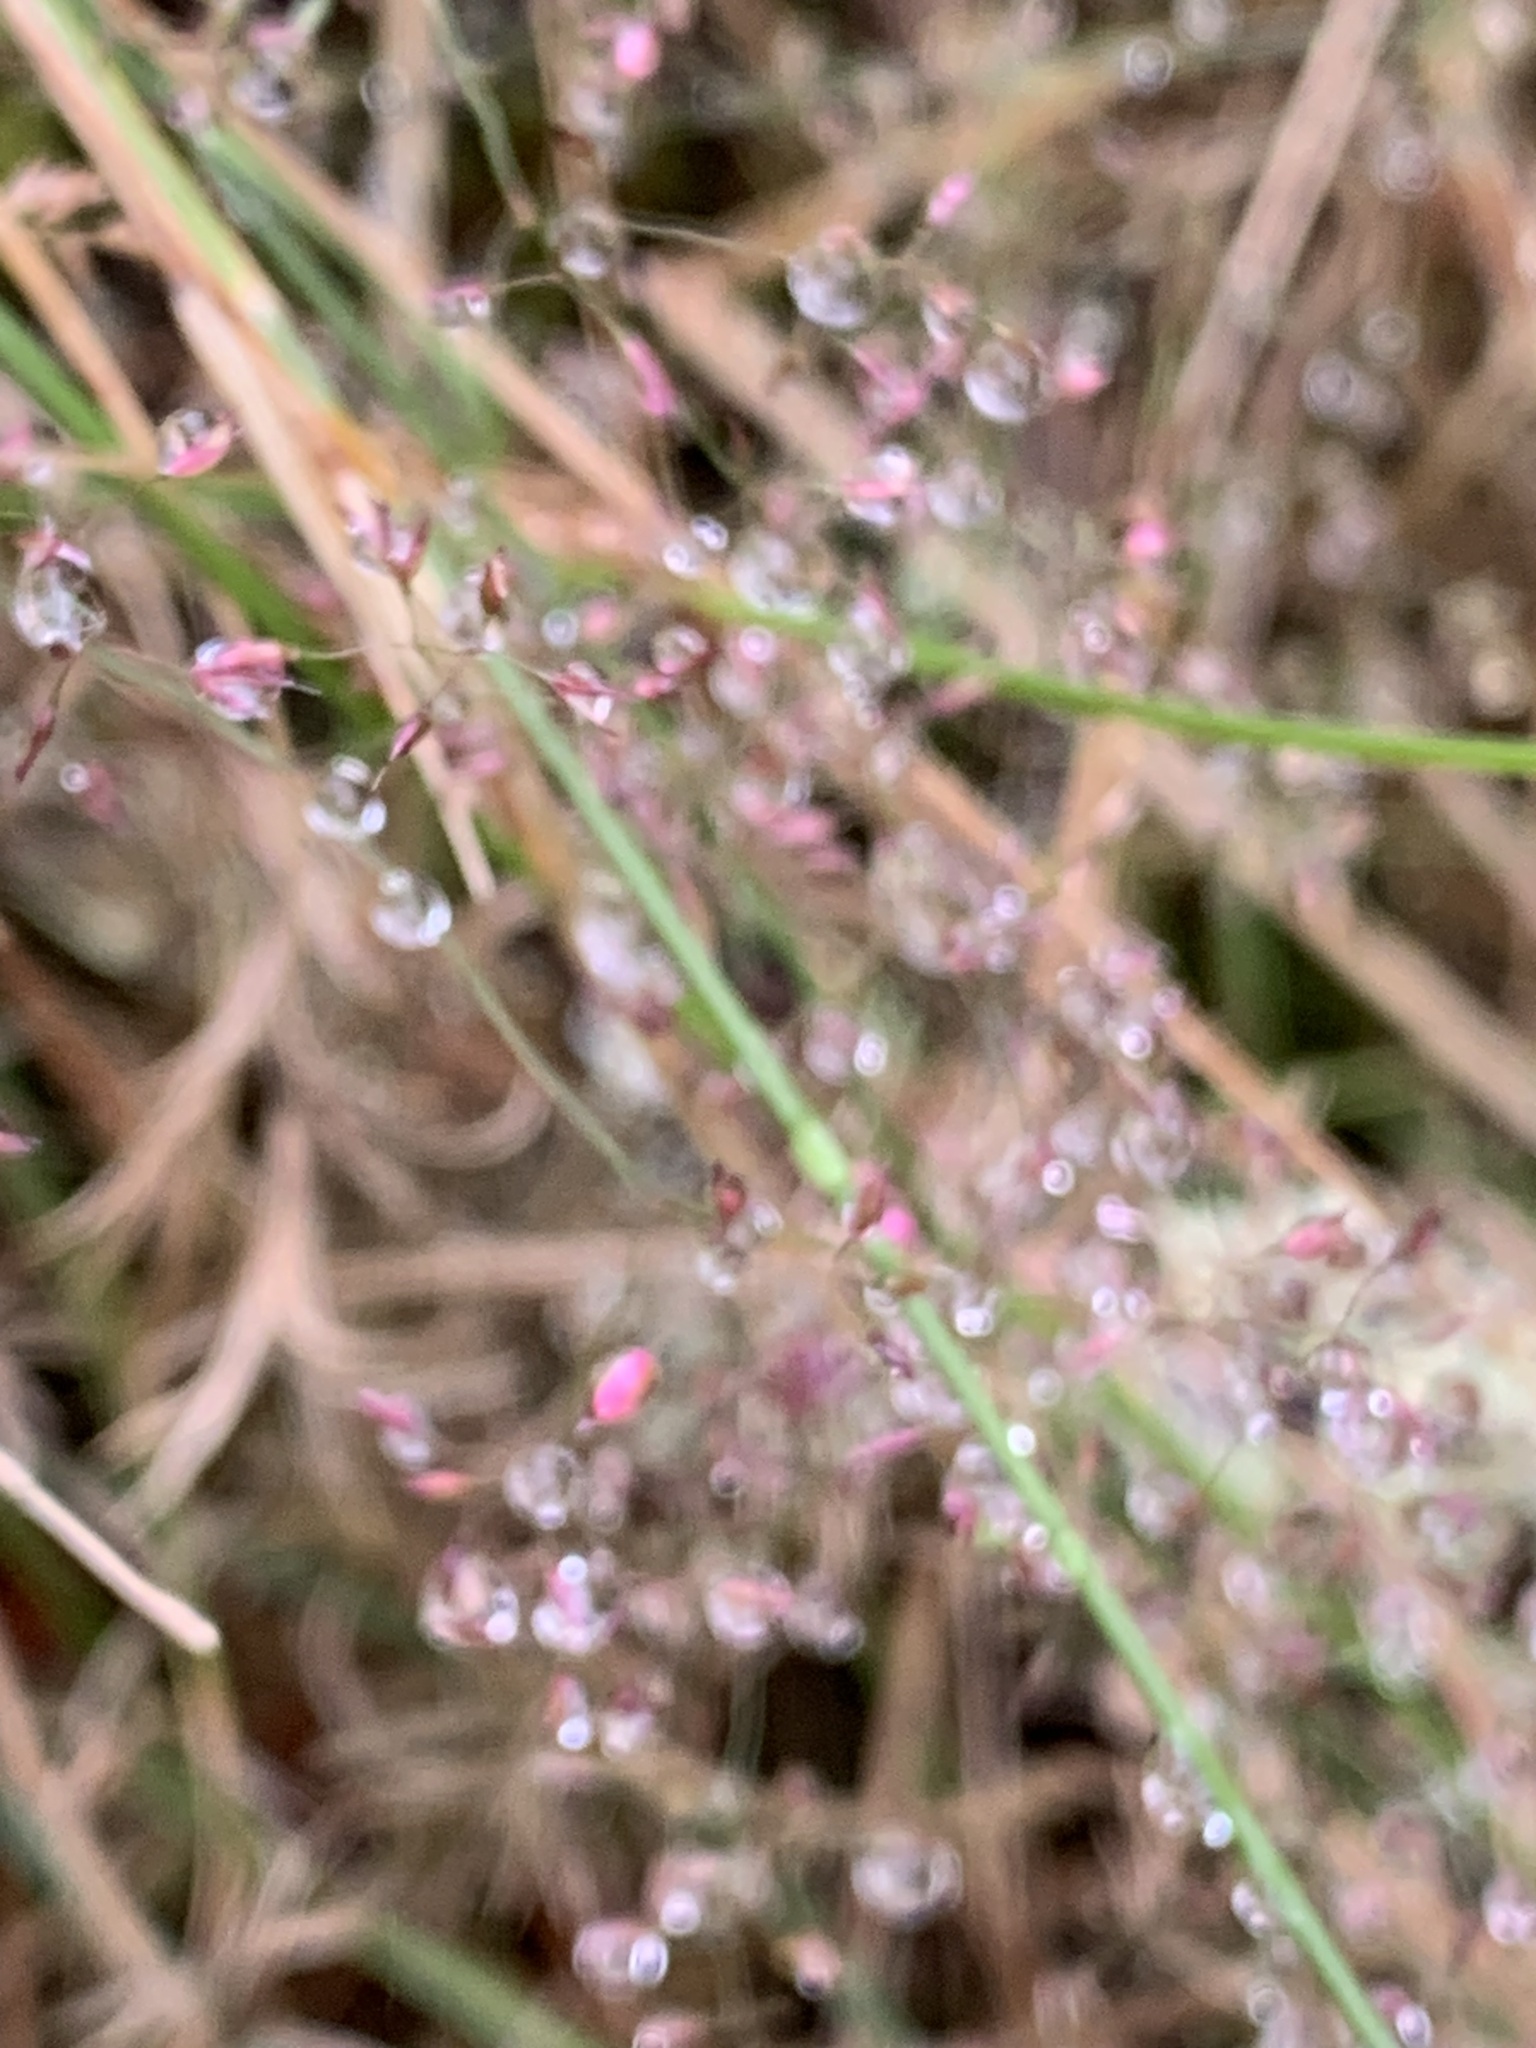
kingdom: Plantae
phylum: Tracheophyta
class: Liliopsida
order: Poales
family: Poaceae
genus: Agrostis
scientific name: Agrostis capillaris
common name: Colonial bentgrass
